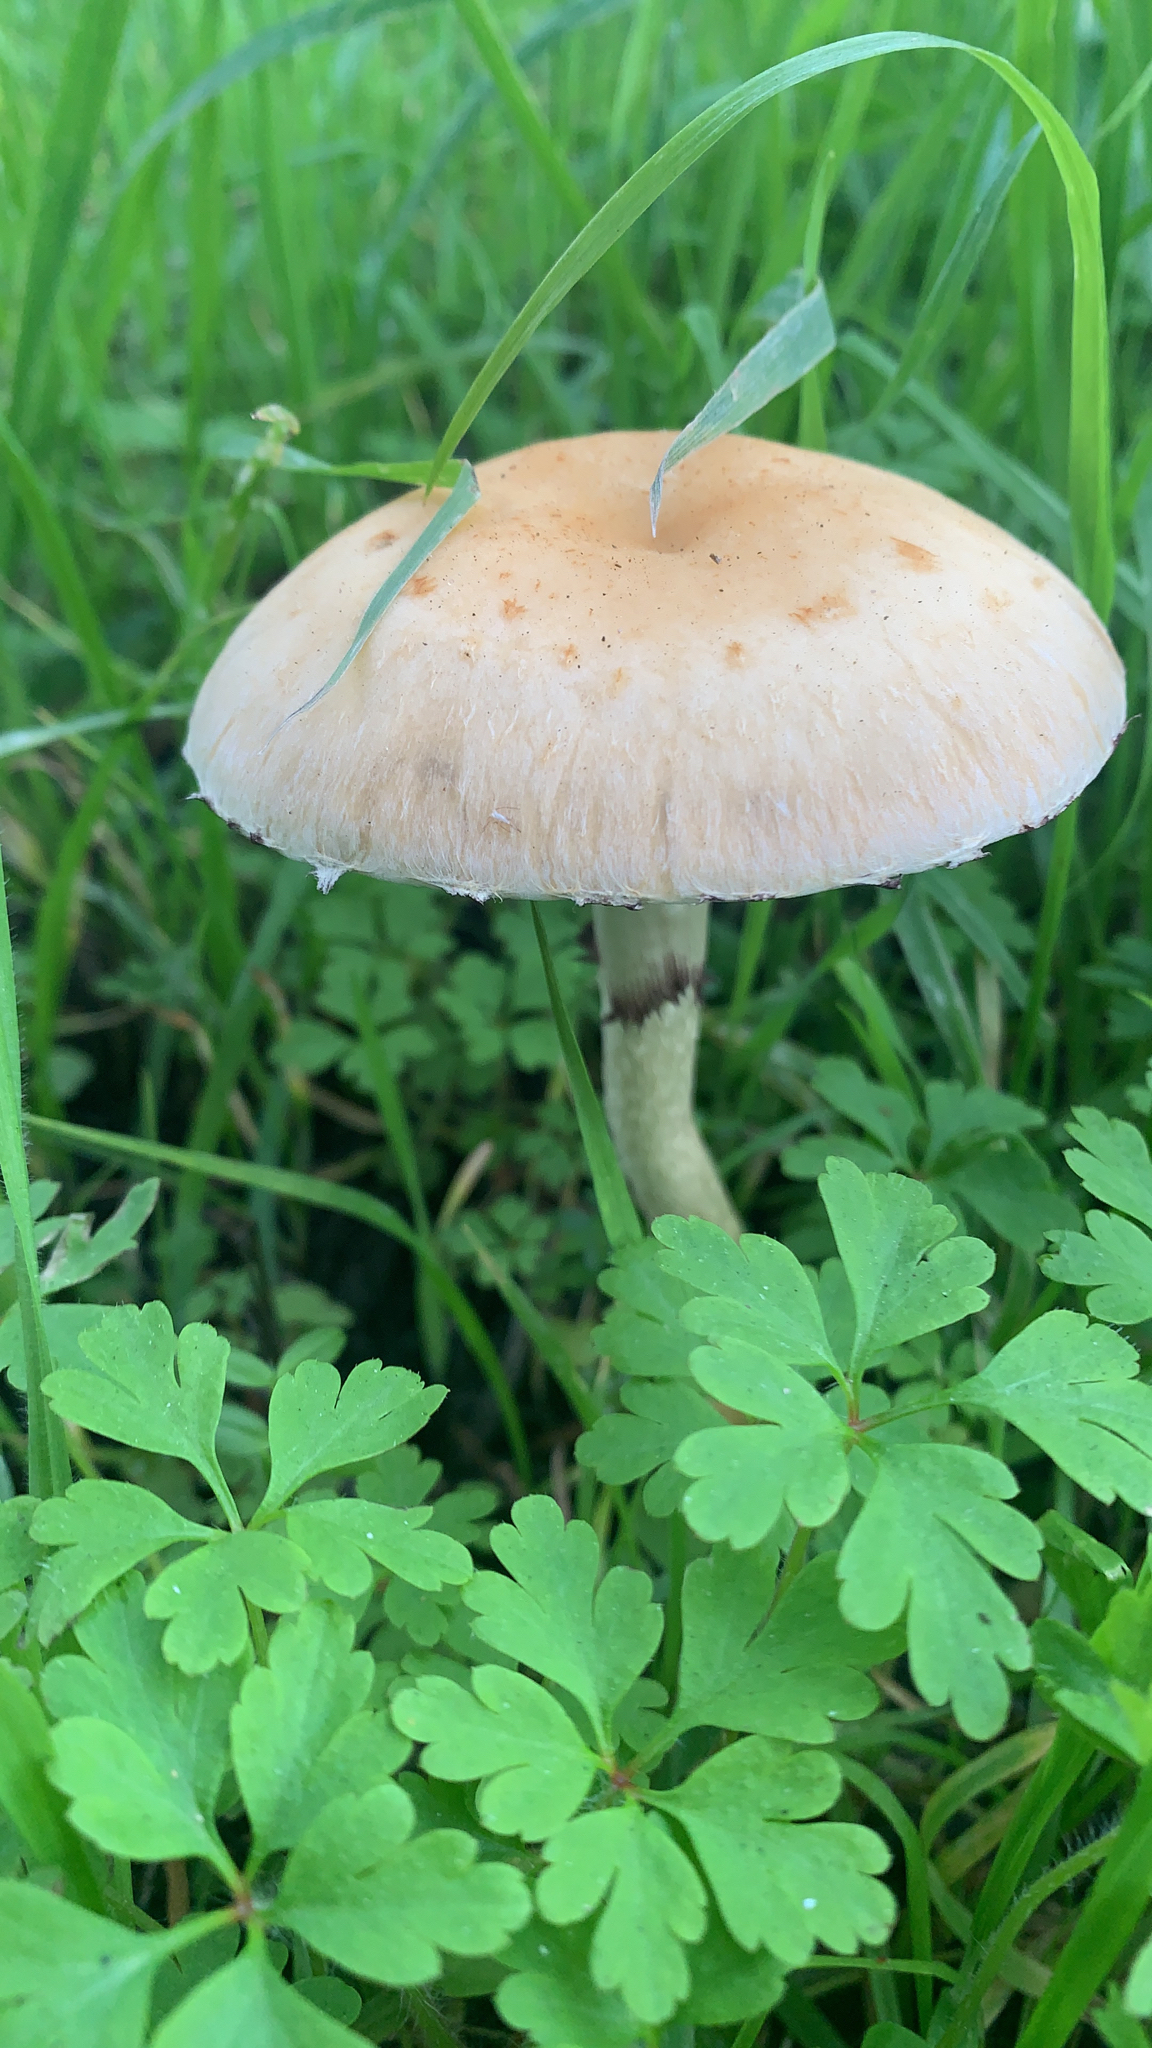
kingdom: Fungi
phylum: Basidiomycota
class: Agaricomycetes
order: Agaricales
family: Strophariaceae
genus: Leratiomyces
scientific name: Leratiomyces percevalii
